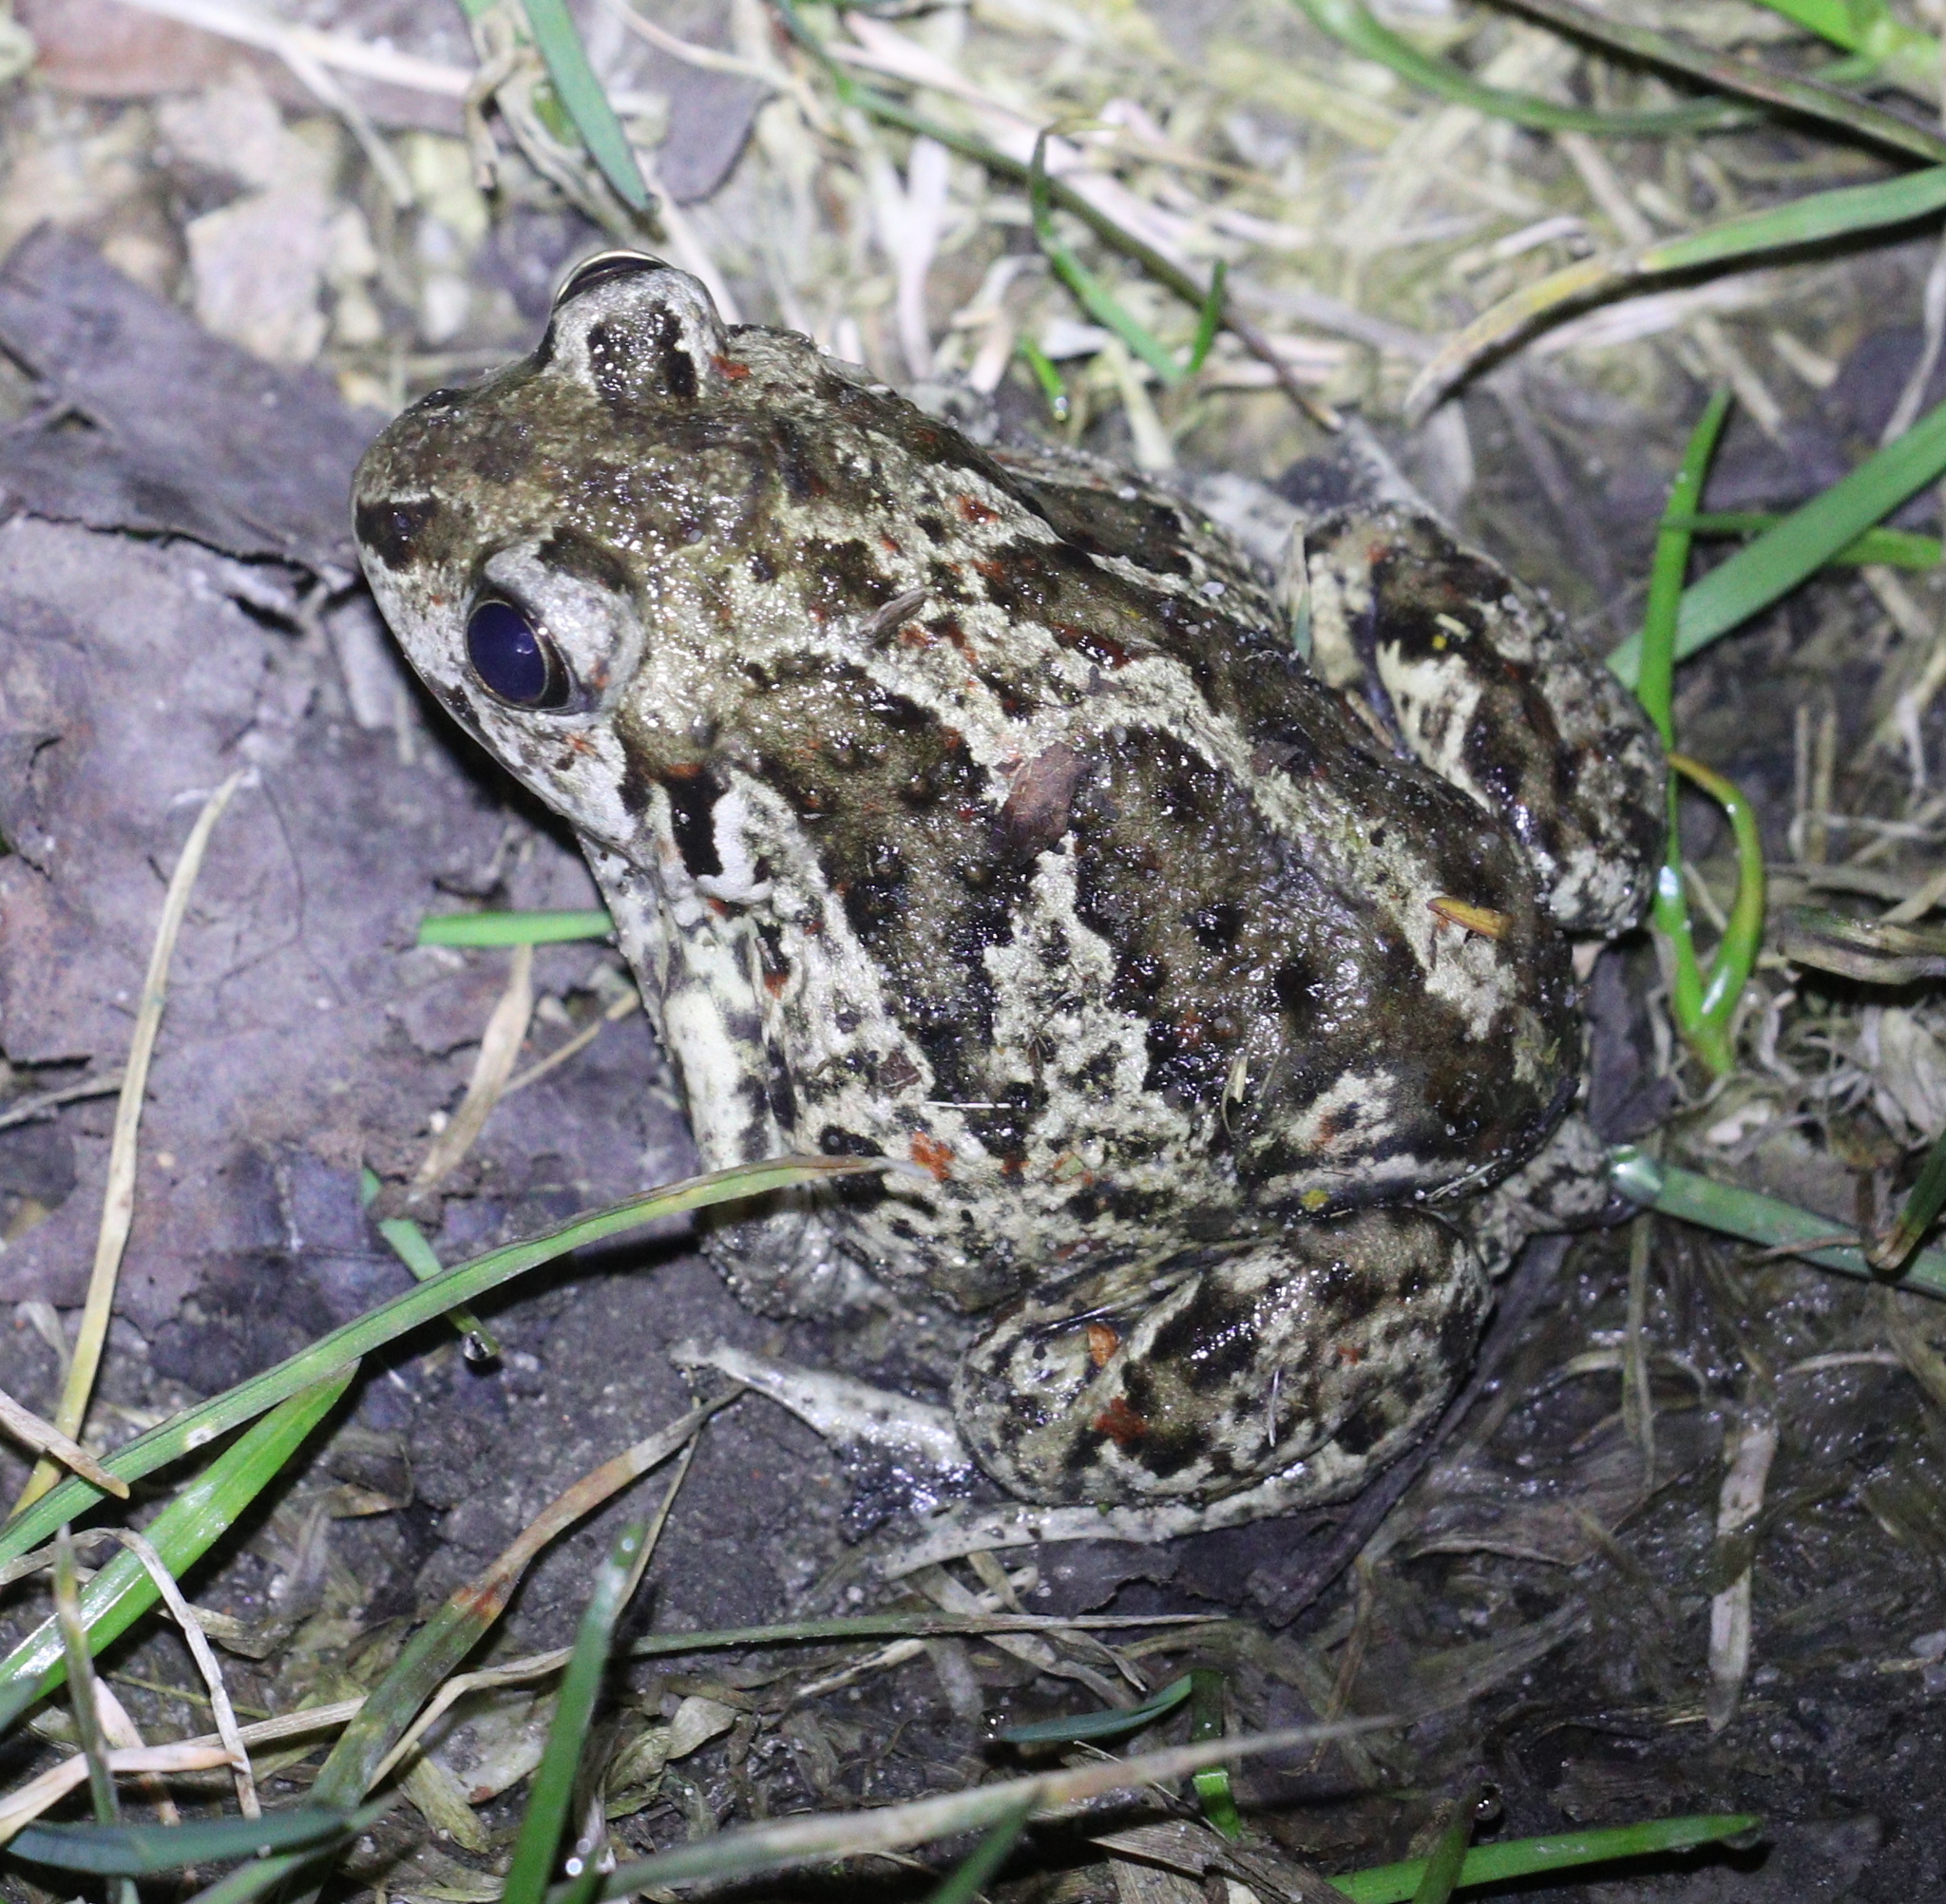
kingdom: Animalia
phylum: Chordata
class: Amphibia
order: Anura
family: Pelobatidae
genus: Pelobates
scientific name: Pelobates fuscus
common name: Common eurasian spadefoot toad
